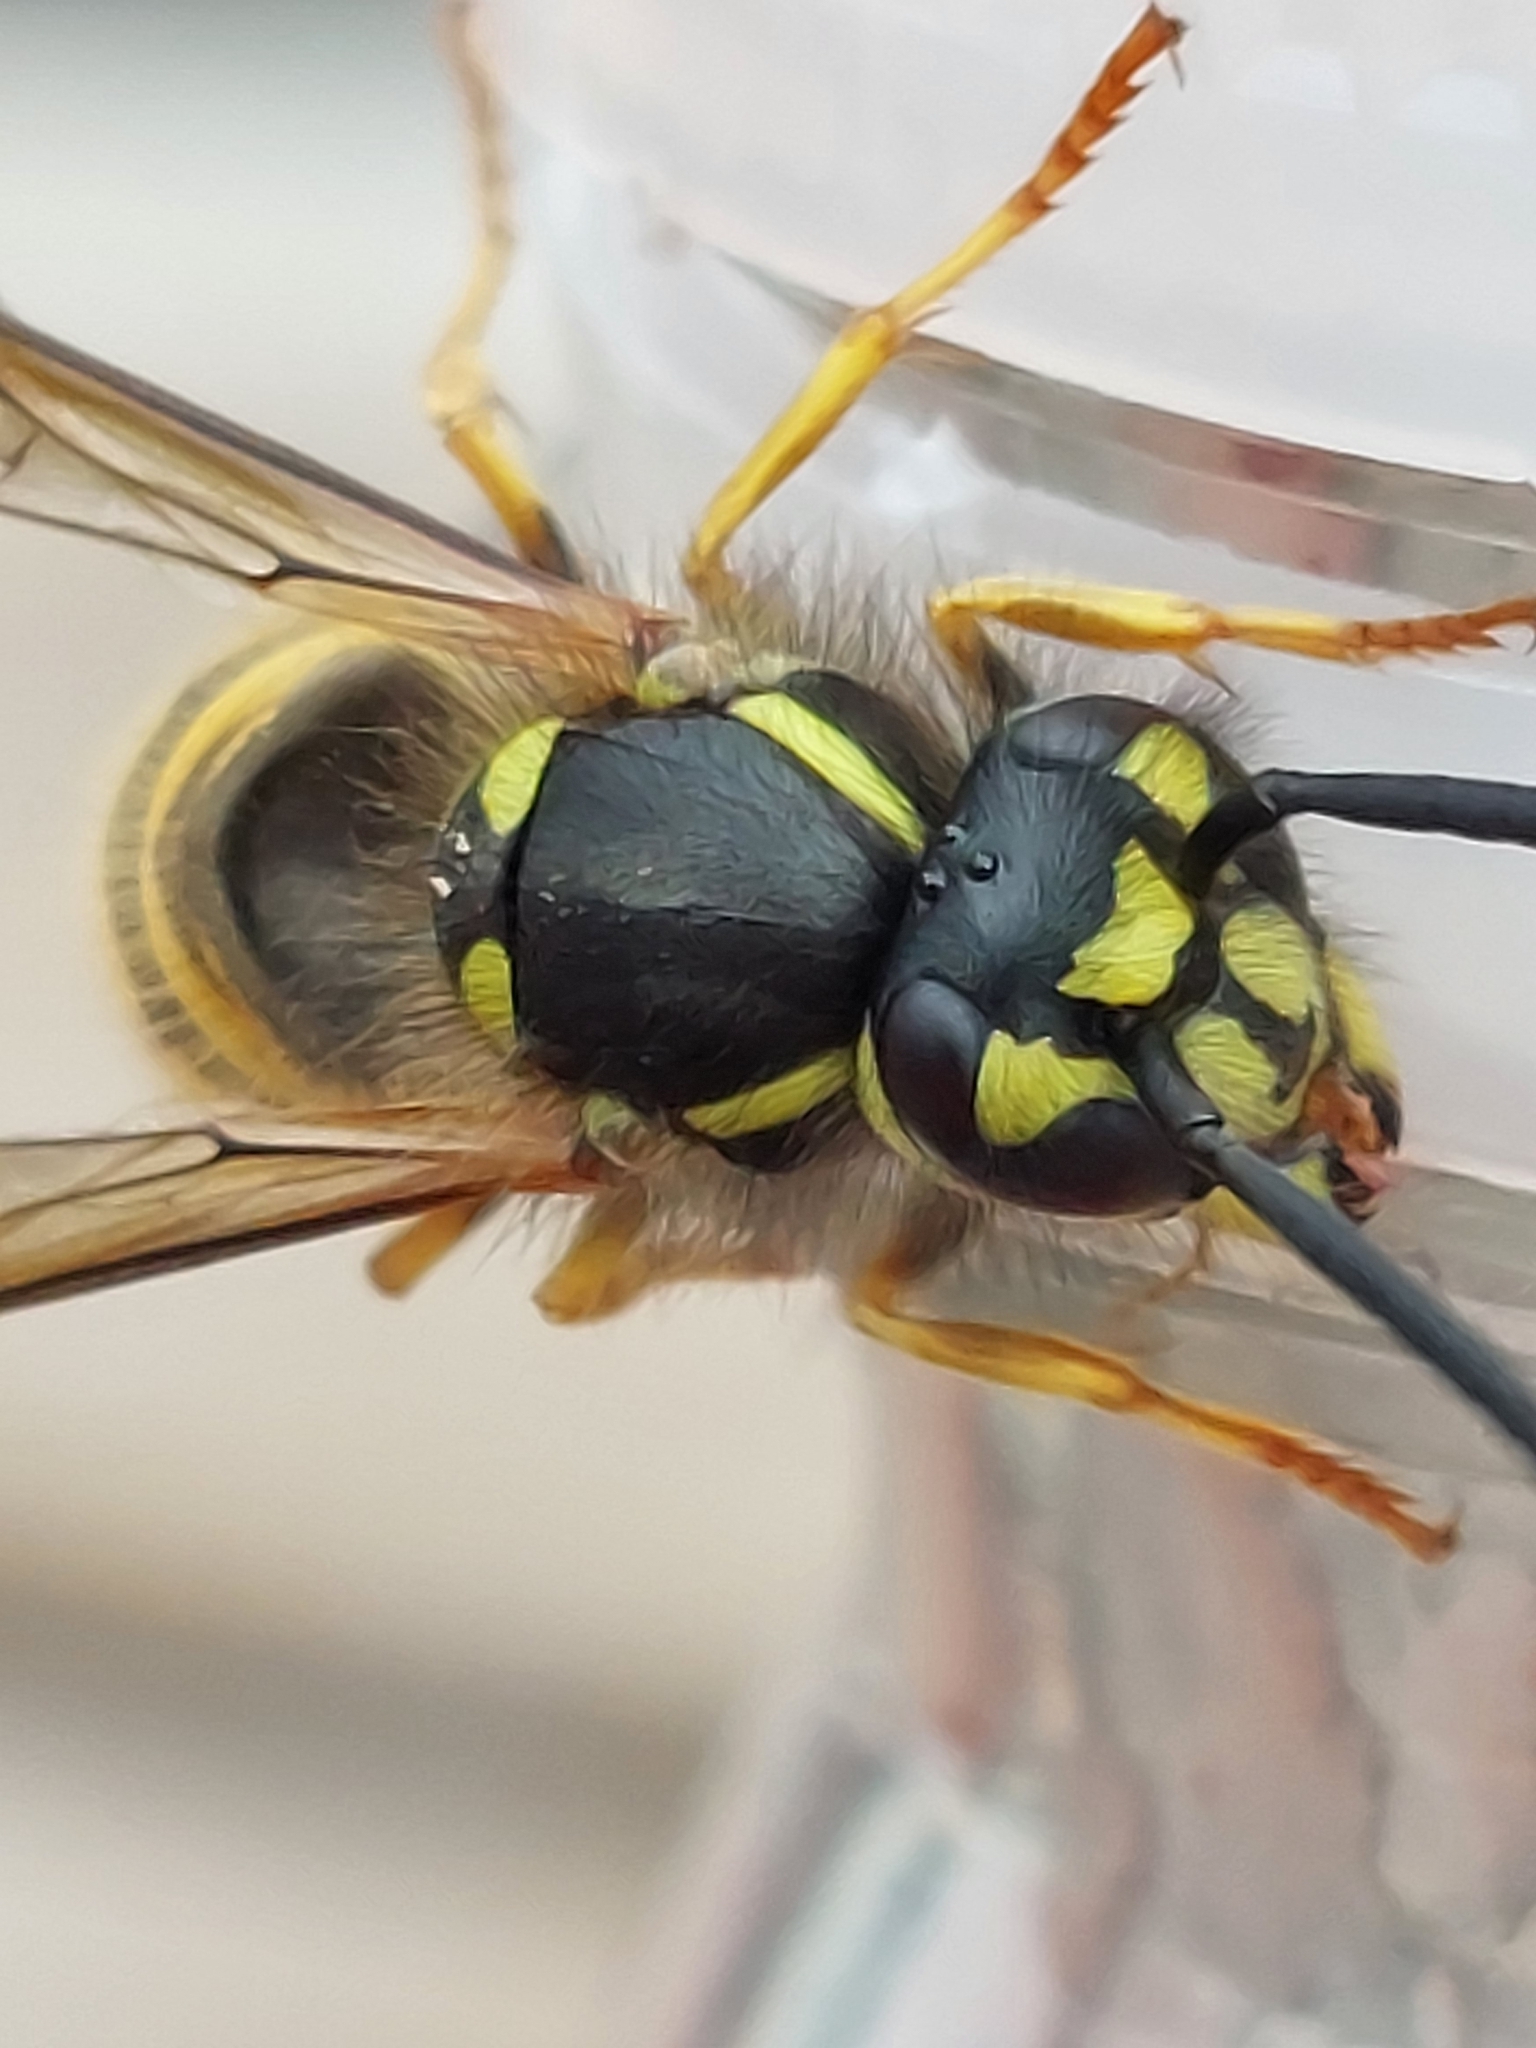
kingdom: Animalia
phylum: Arthropoda
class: Insecta
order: Hymenoptera
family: Vespidae
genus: Vespula
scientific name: Vespula vulgaris
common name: Common wasp
